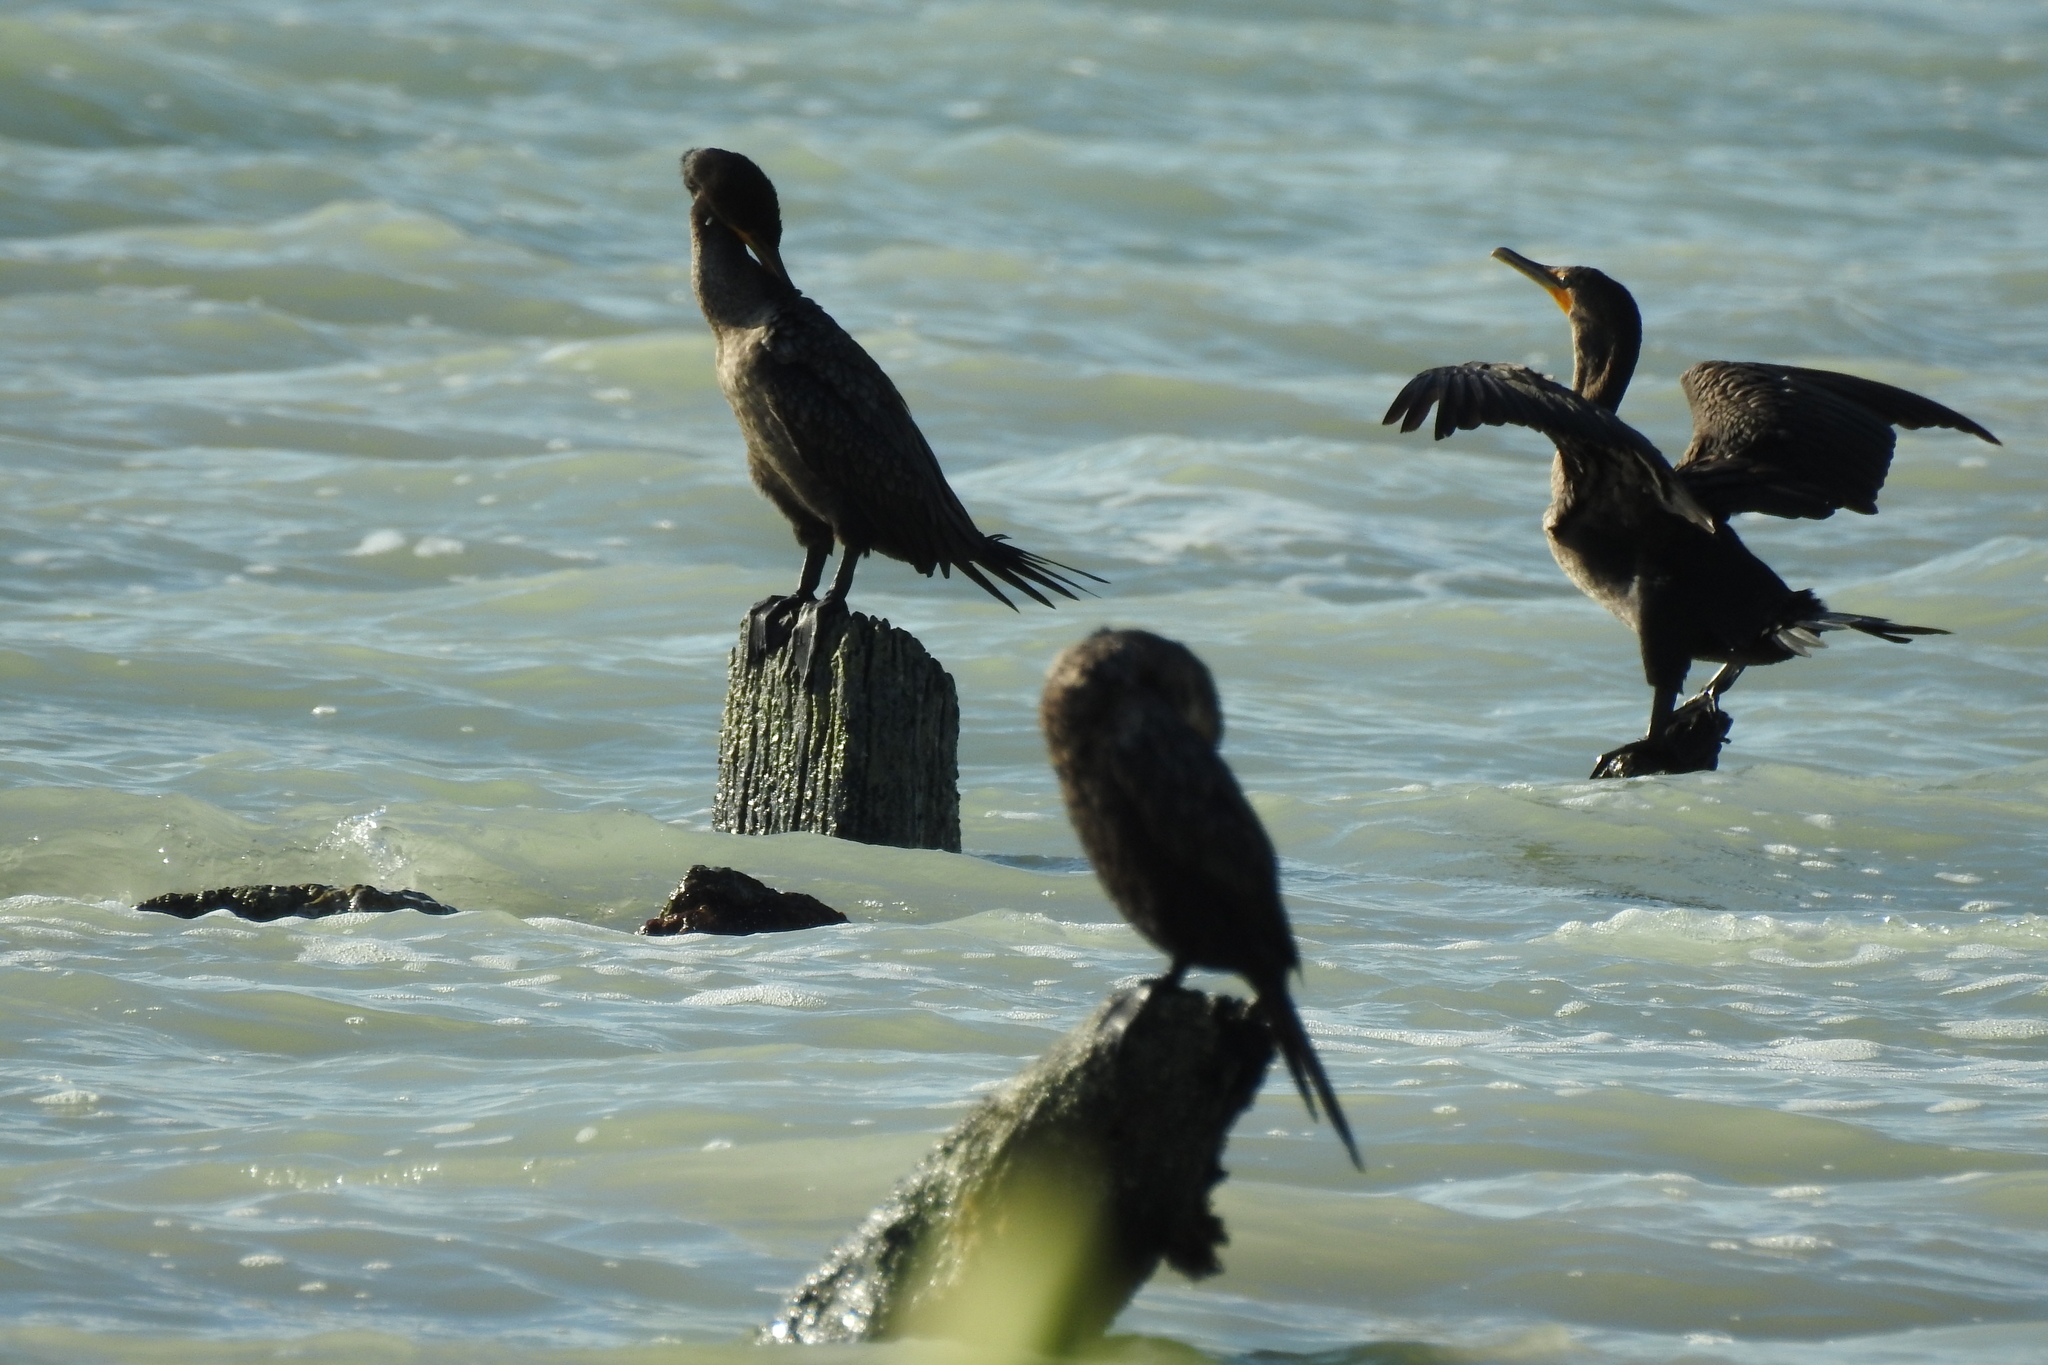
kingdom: Animalia
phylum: Chordata
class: Aves
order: Suliformes
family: Phalacrocoracidae
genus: Phalacrocorax
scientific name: Phalacrocorax brasilianus
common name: Neotropic cormorant
